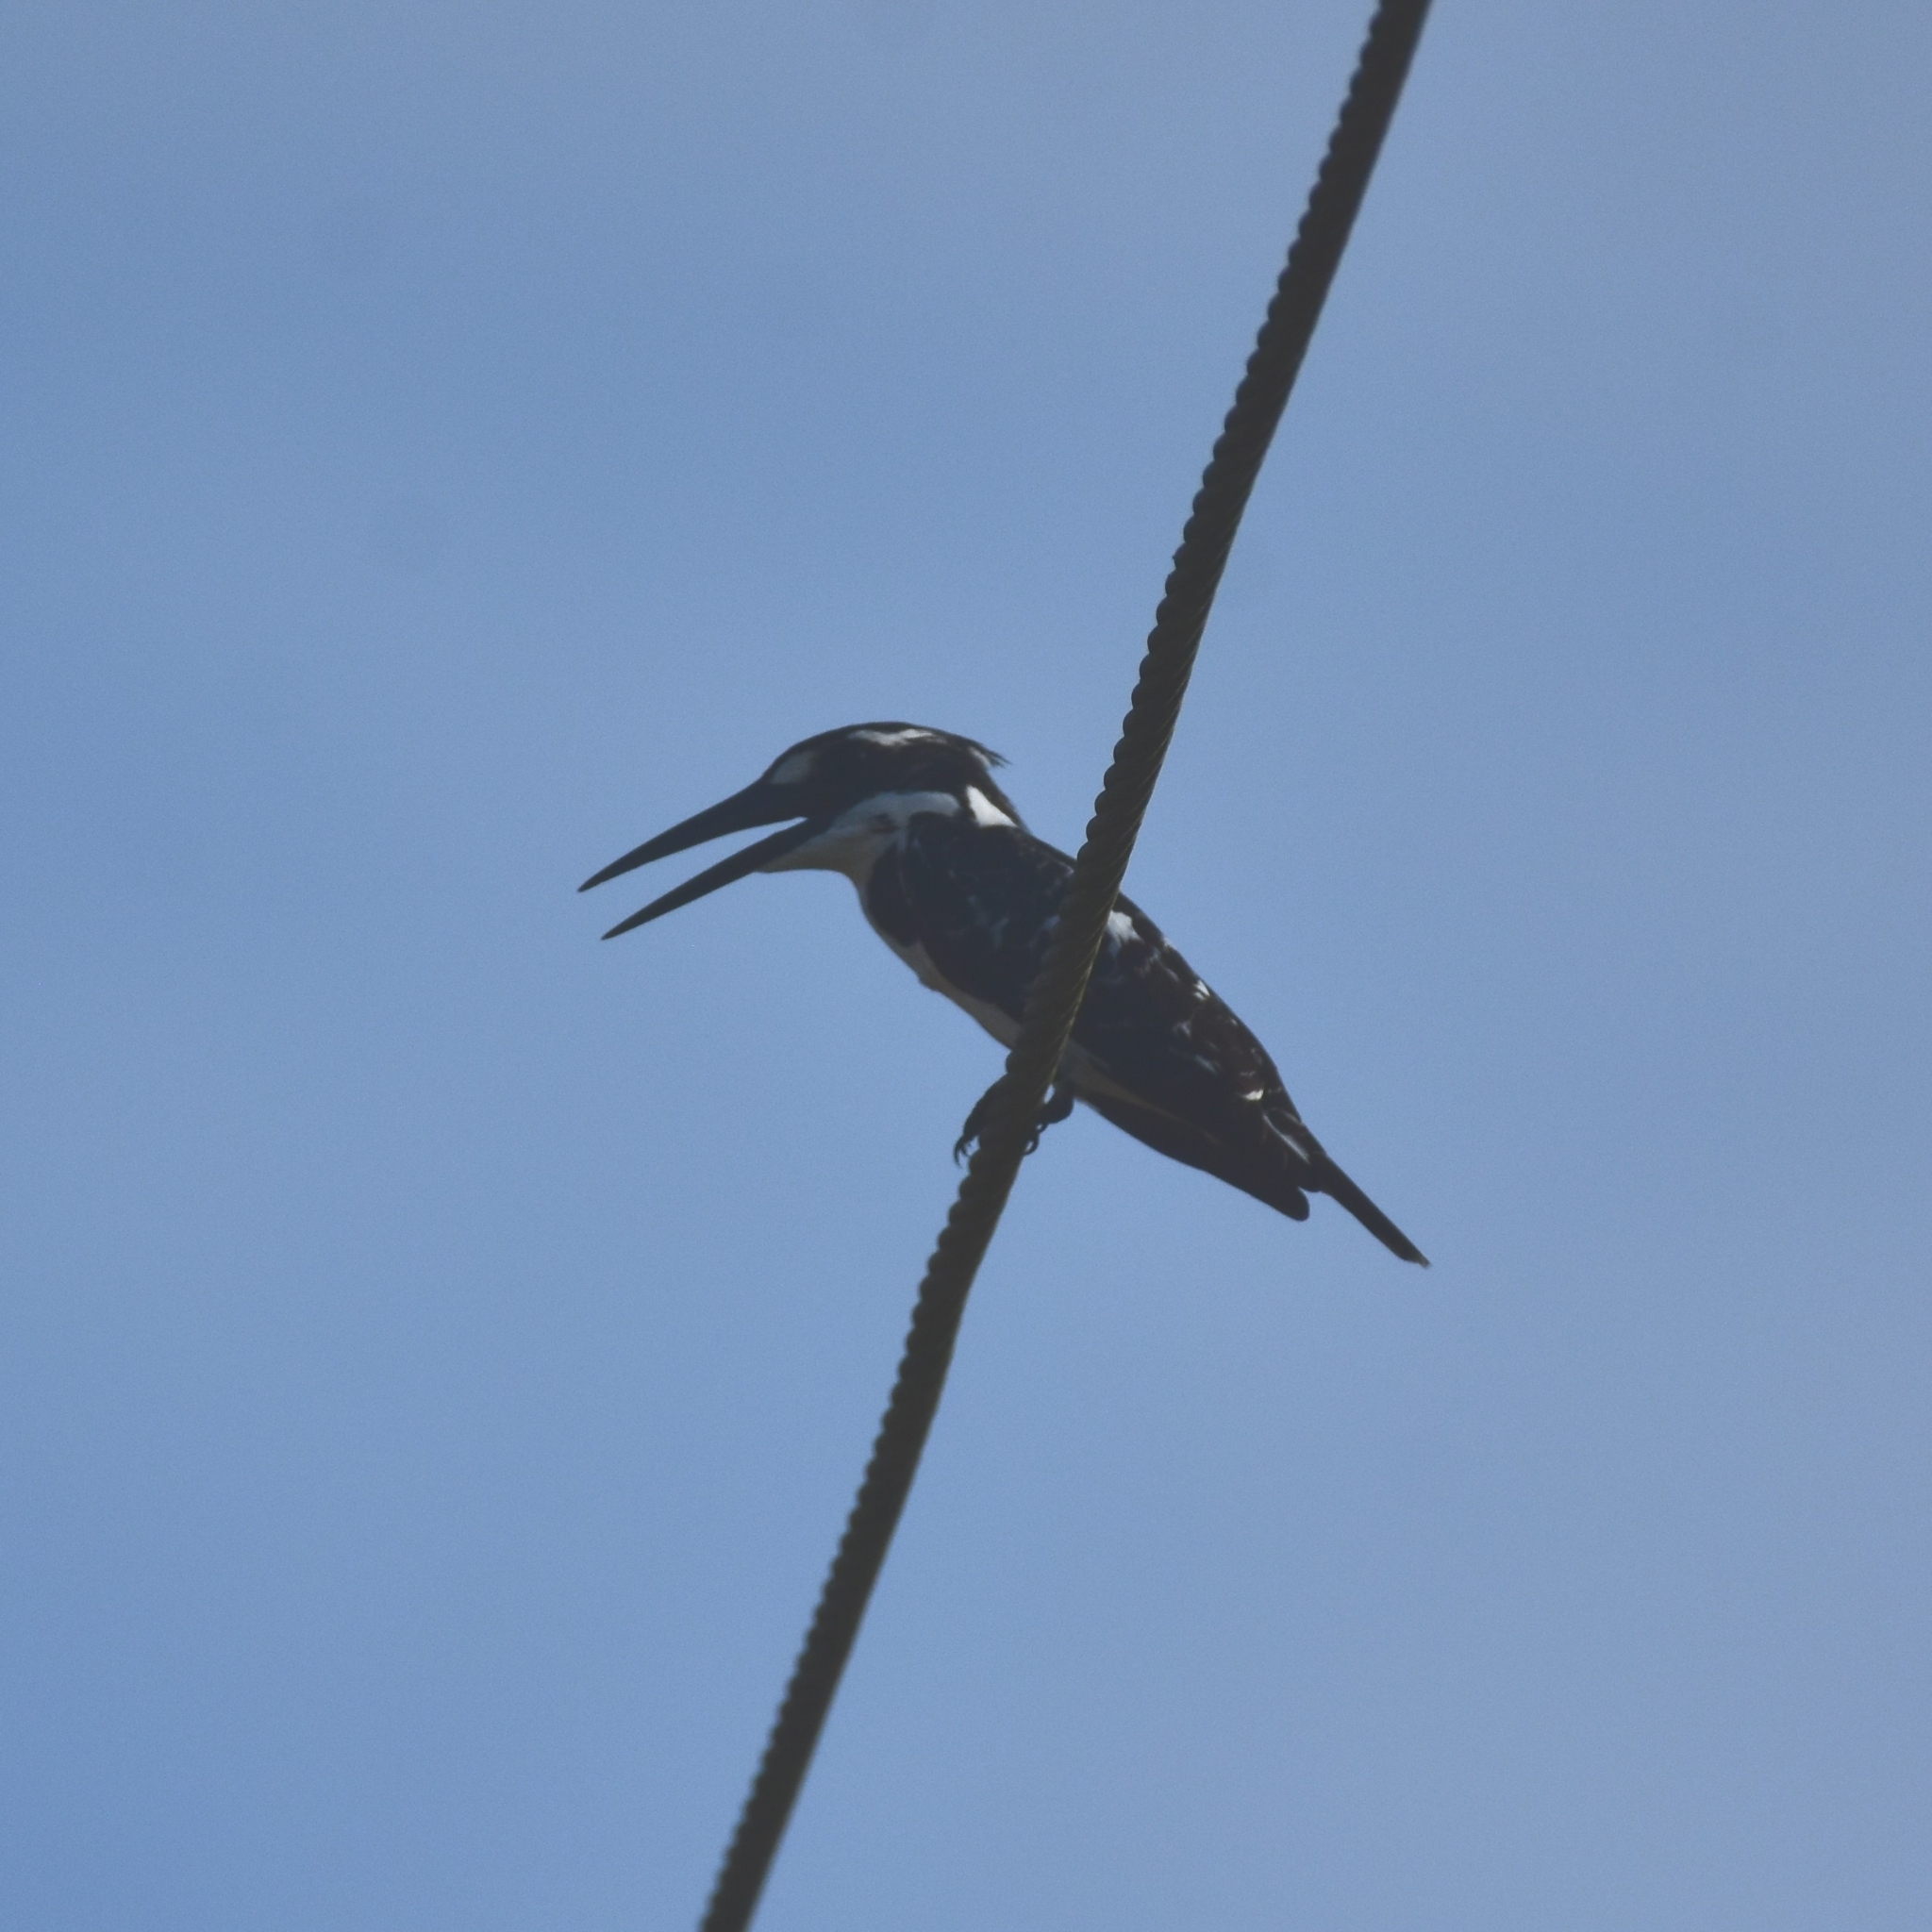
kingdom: Animalia
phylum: Chordata
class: Aves
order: Coraciiformes
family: Alcedinidae
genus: Ceryle
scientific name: Ceryle rudis
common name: Pied kingfisher
